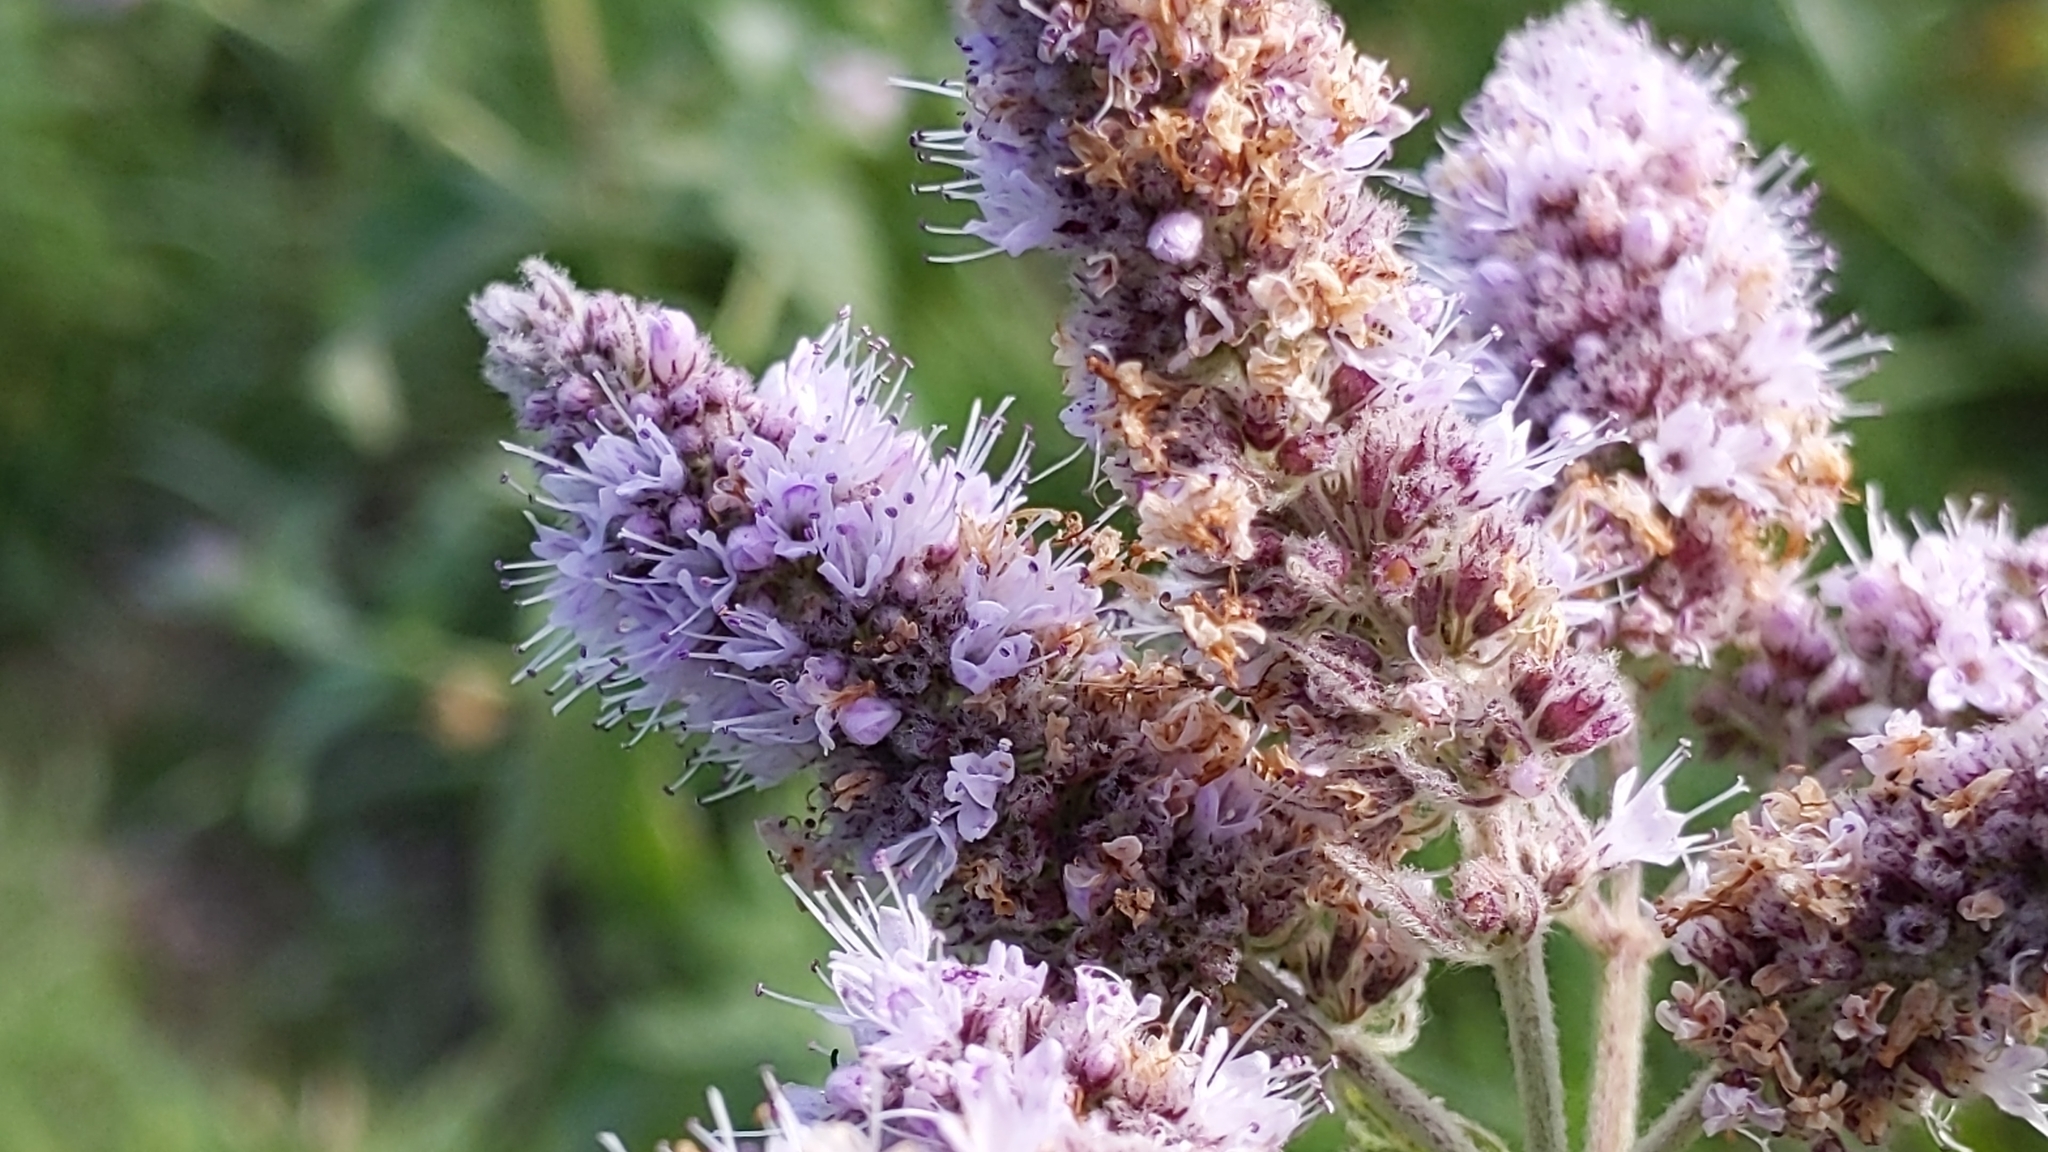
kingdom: Plantae
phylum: Tracheophyta
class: Magnoliopsida
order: Lamiales
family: Lamiaceae
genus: Mentha
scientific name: Mentha longifolia
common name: Horse mint
